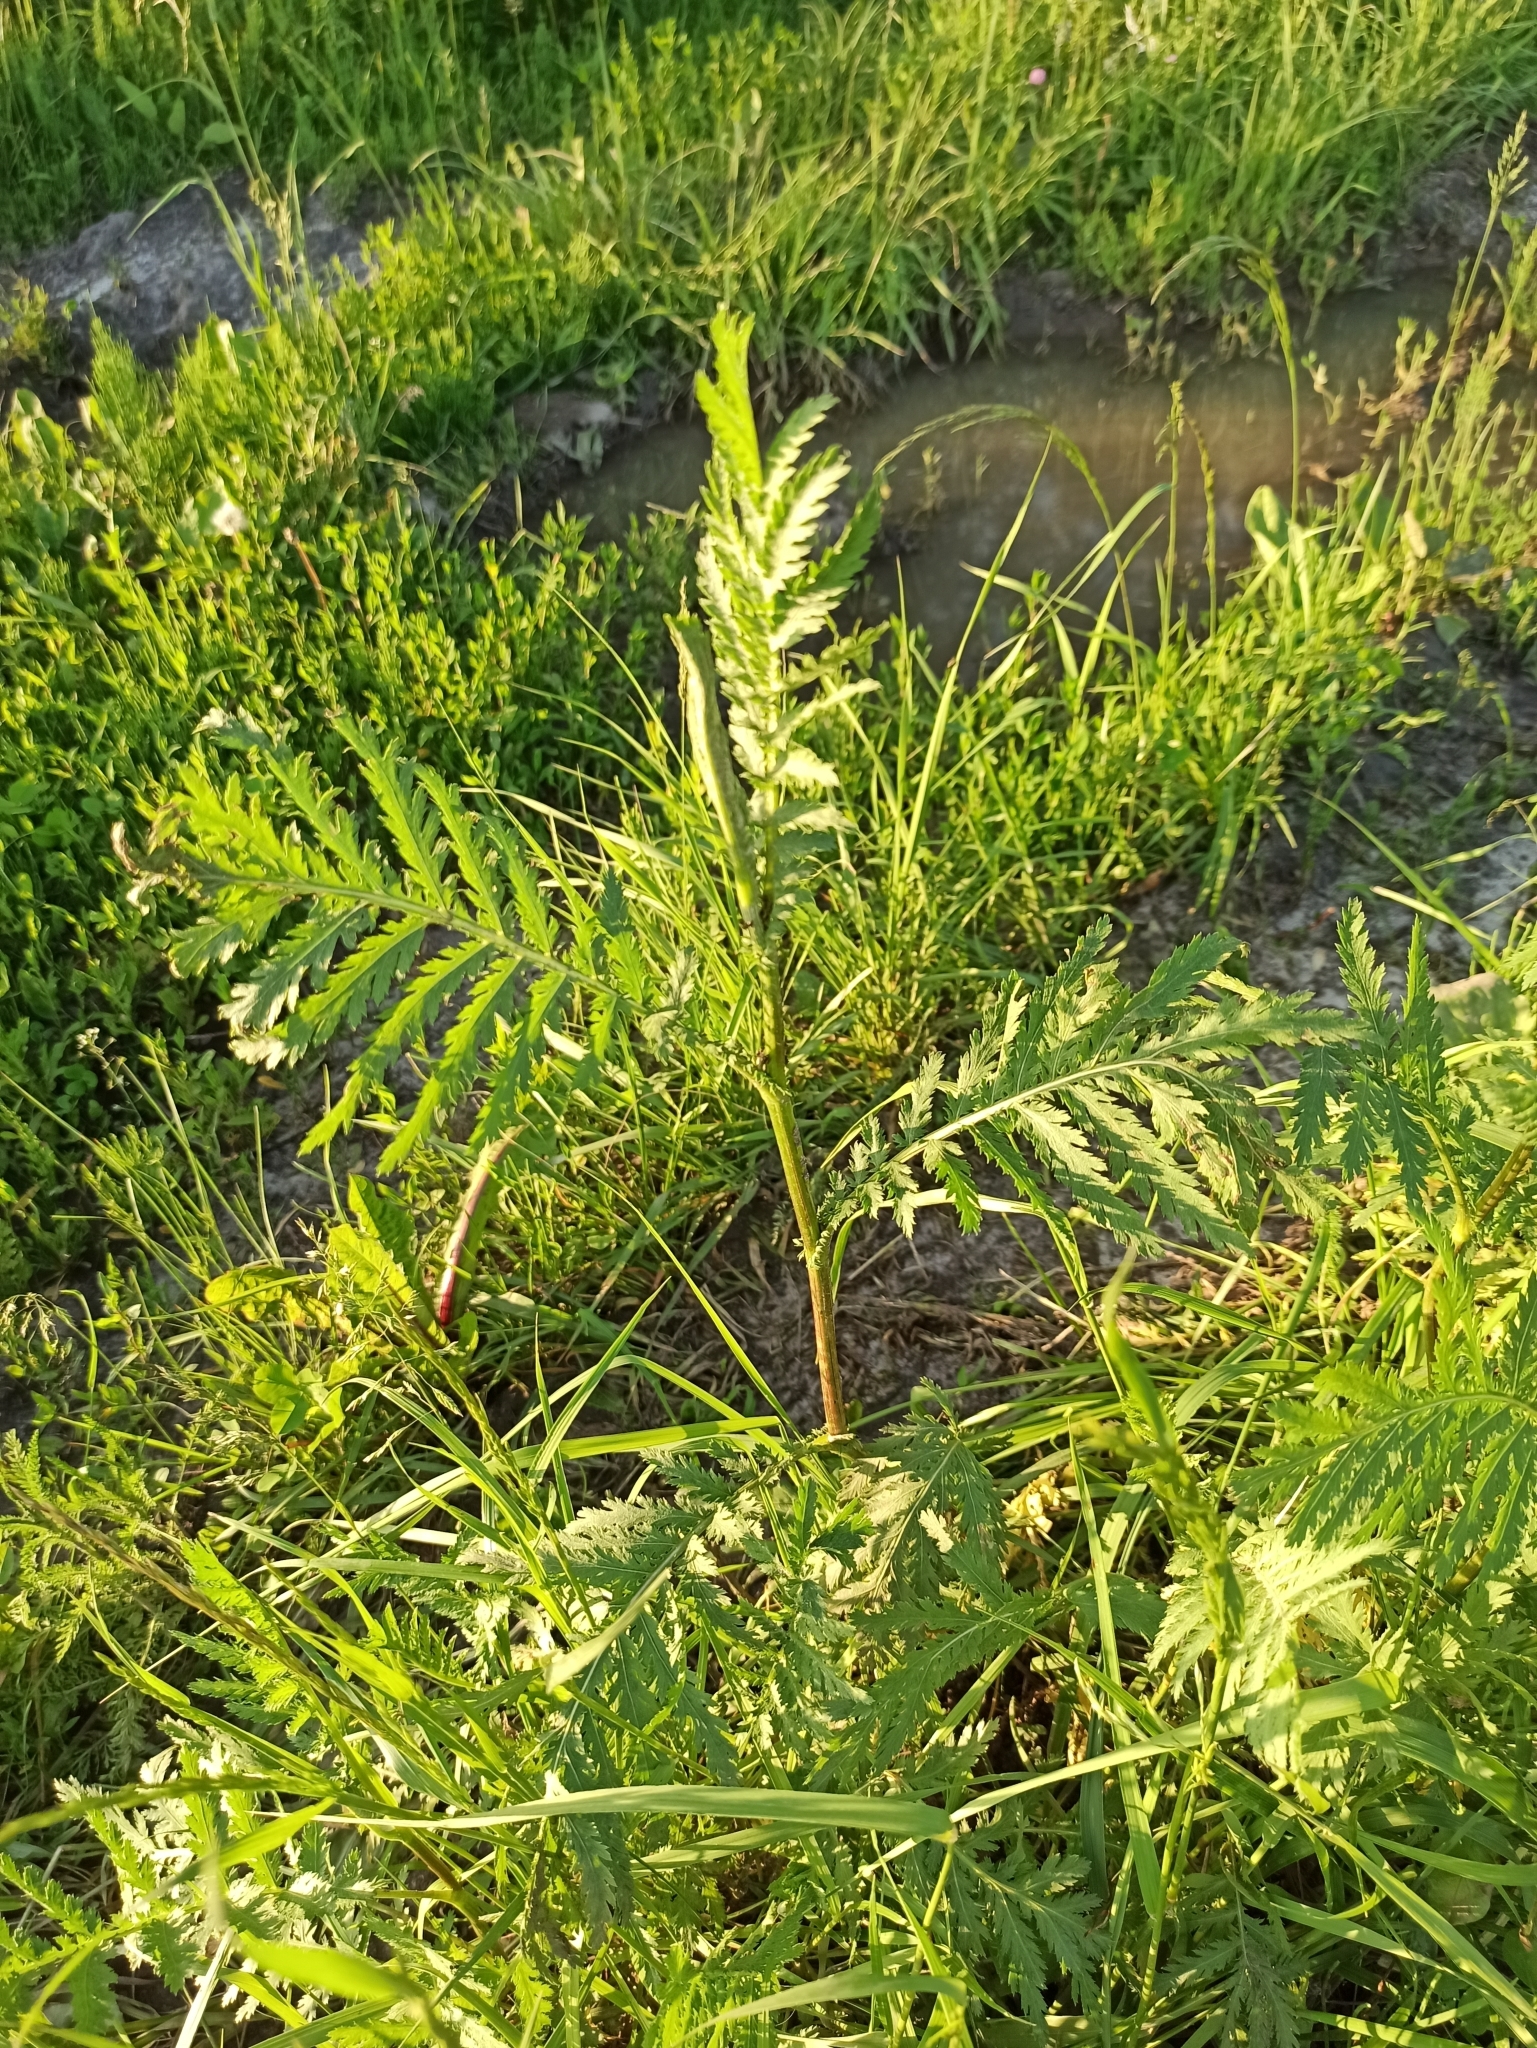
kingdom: Plantae
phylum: Tracheophyta
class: Magnoliopsida
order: Asterales
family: Asteraceae
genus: Tanacetum
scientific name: Tanacetum vulgare
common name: Common tansy
